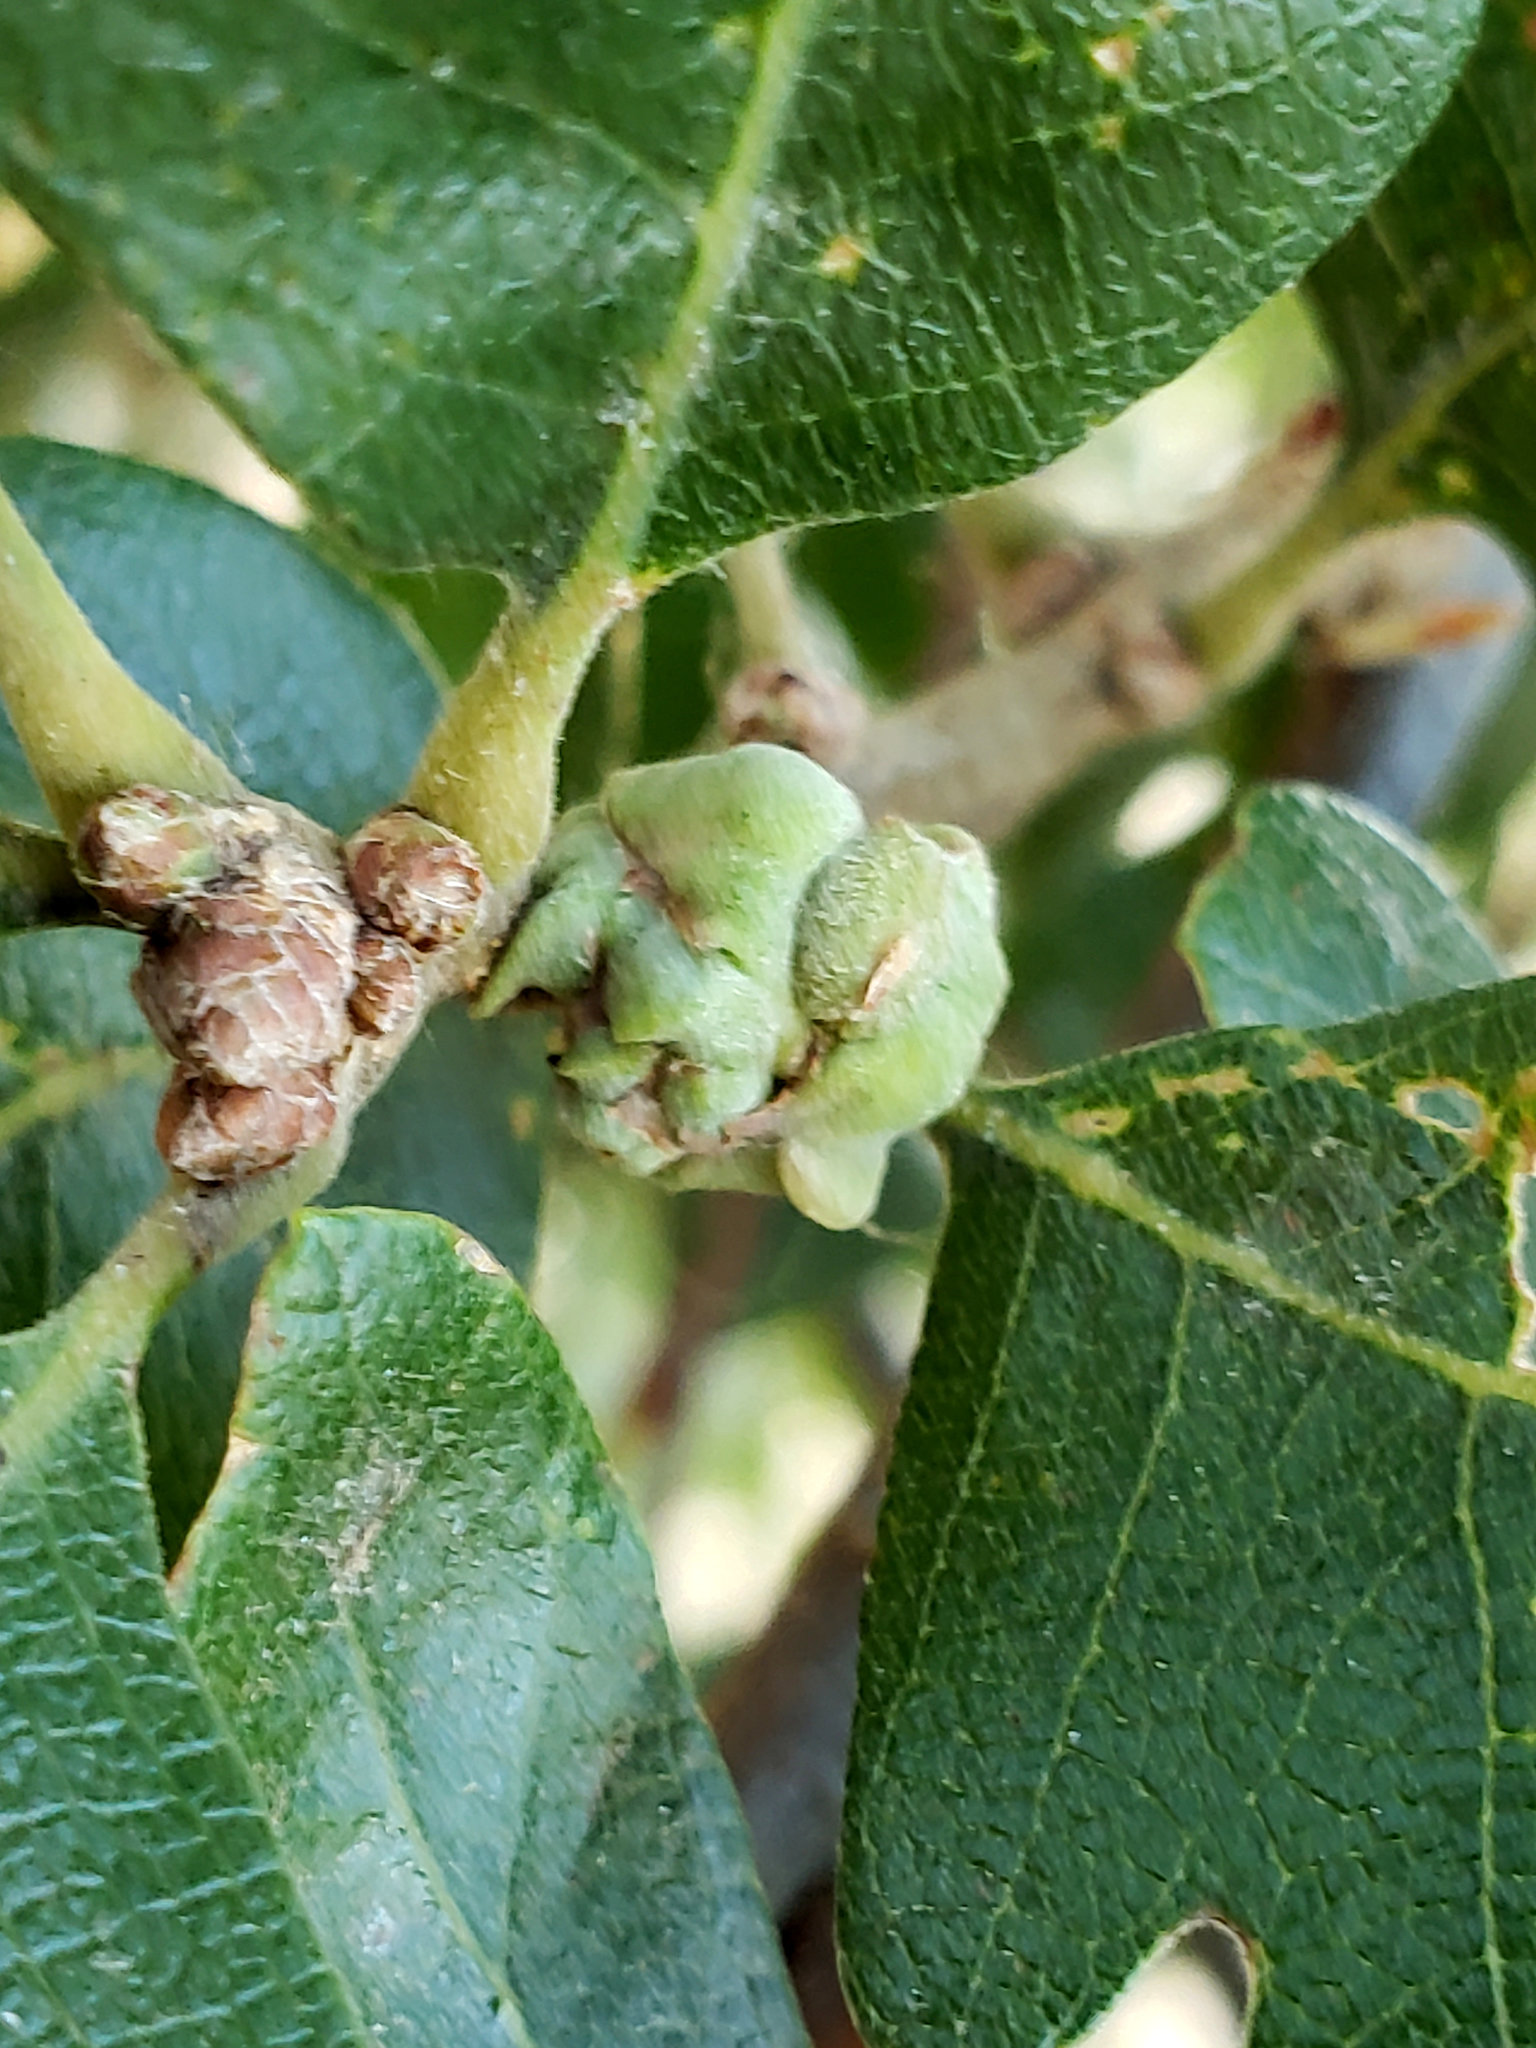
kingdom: Animalia
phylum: Arthropoda
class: Insecta
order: Hymenoptera
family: Cynipidae
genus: Cynips
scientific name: Cynips
